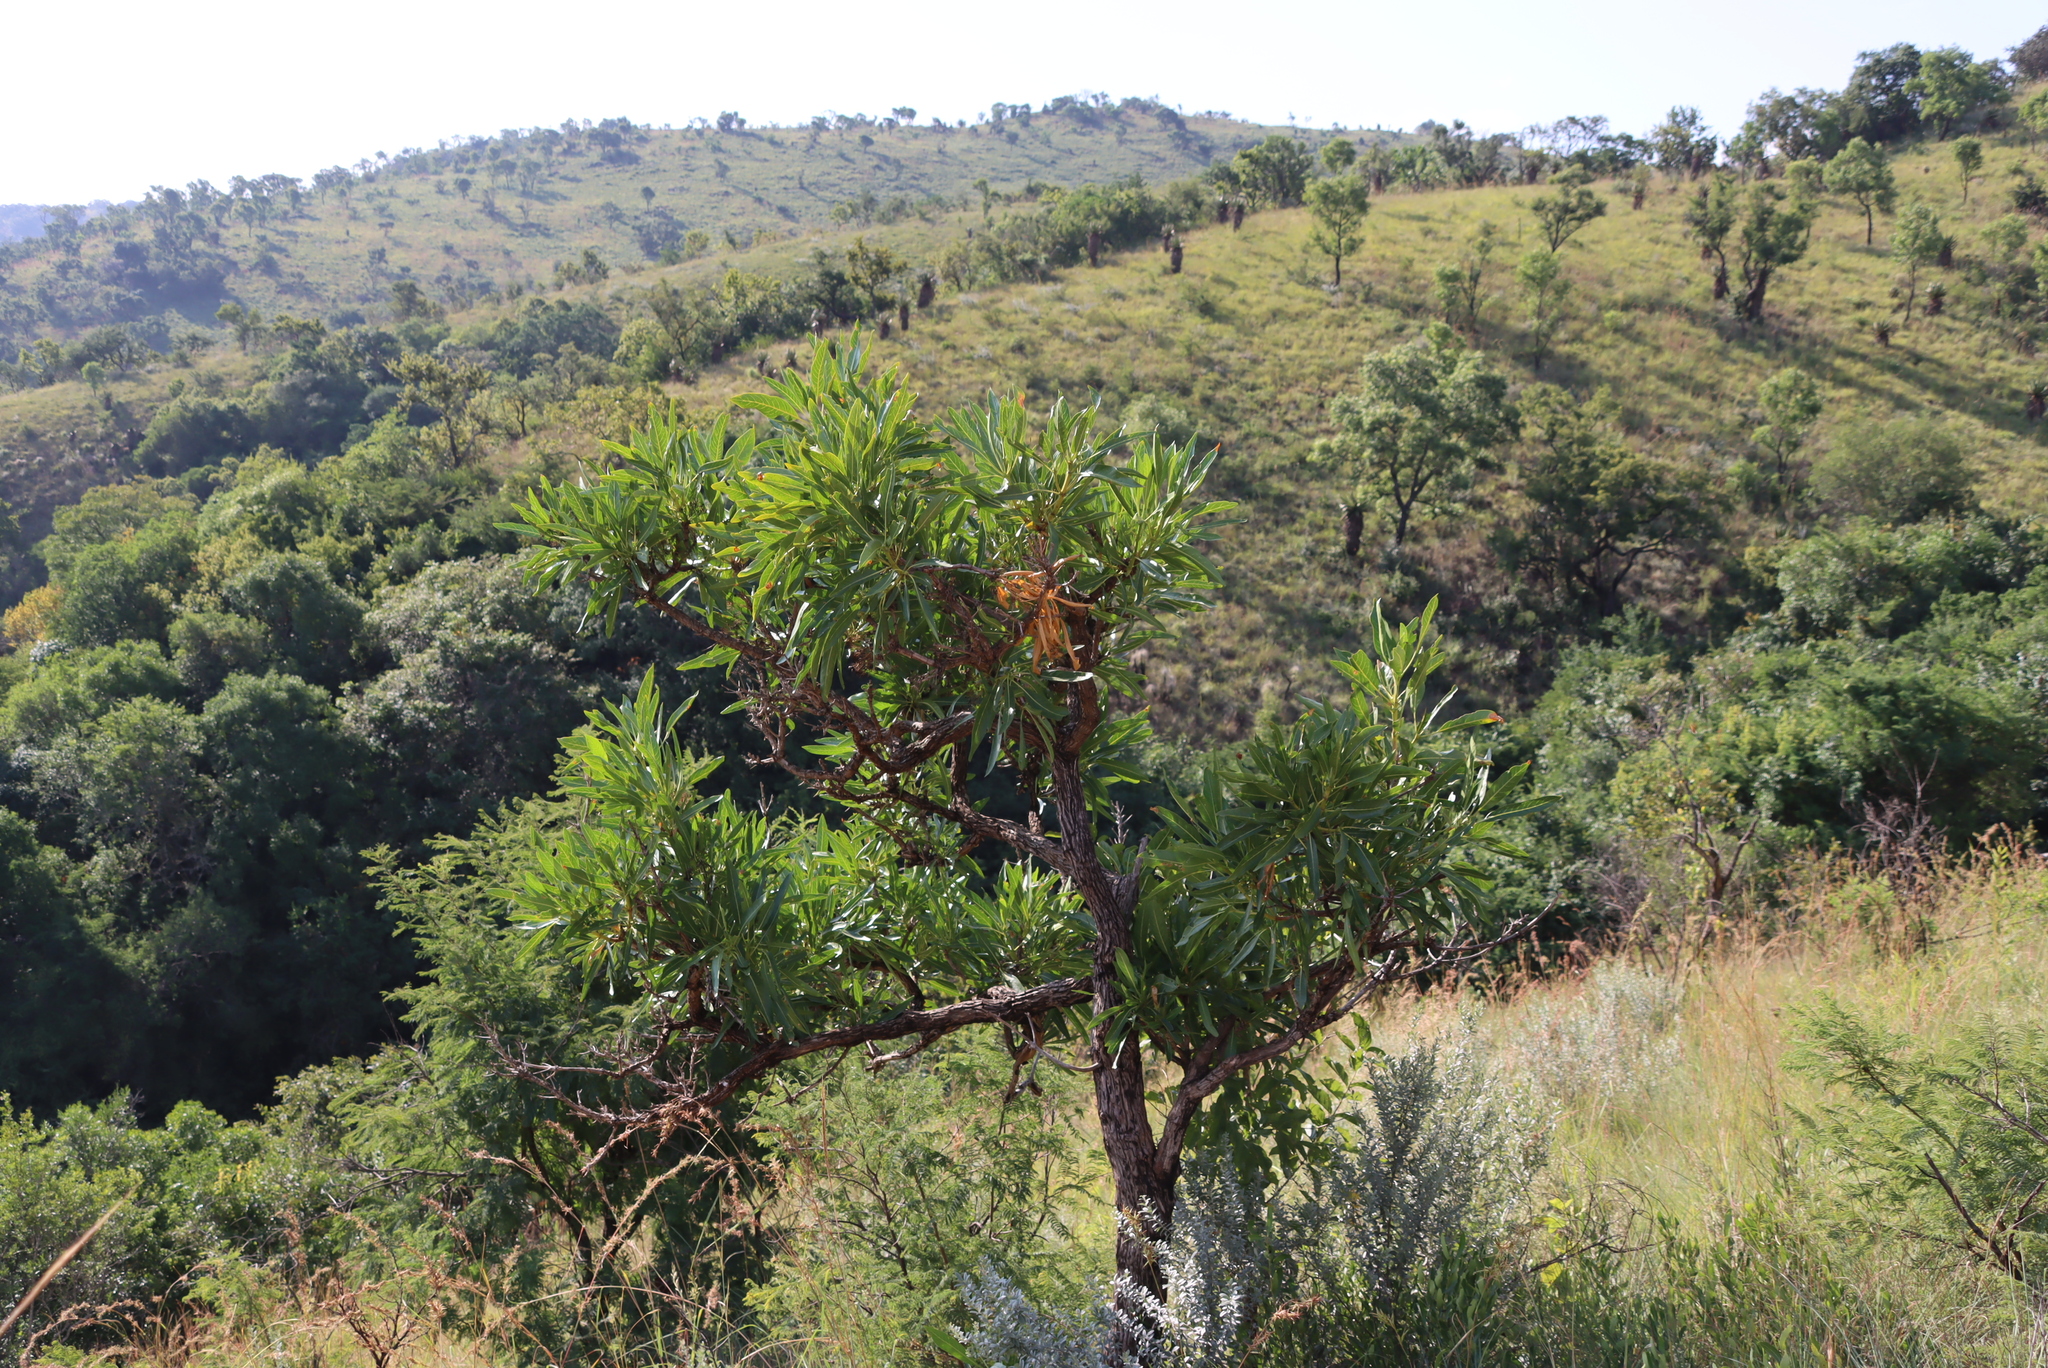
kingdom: Plantae
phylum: Tracheophyta
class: Magnoliopsida
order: Gentianales
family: Rubiaceae
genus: Pavetta
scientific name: Pavetta edentula
